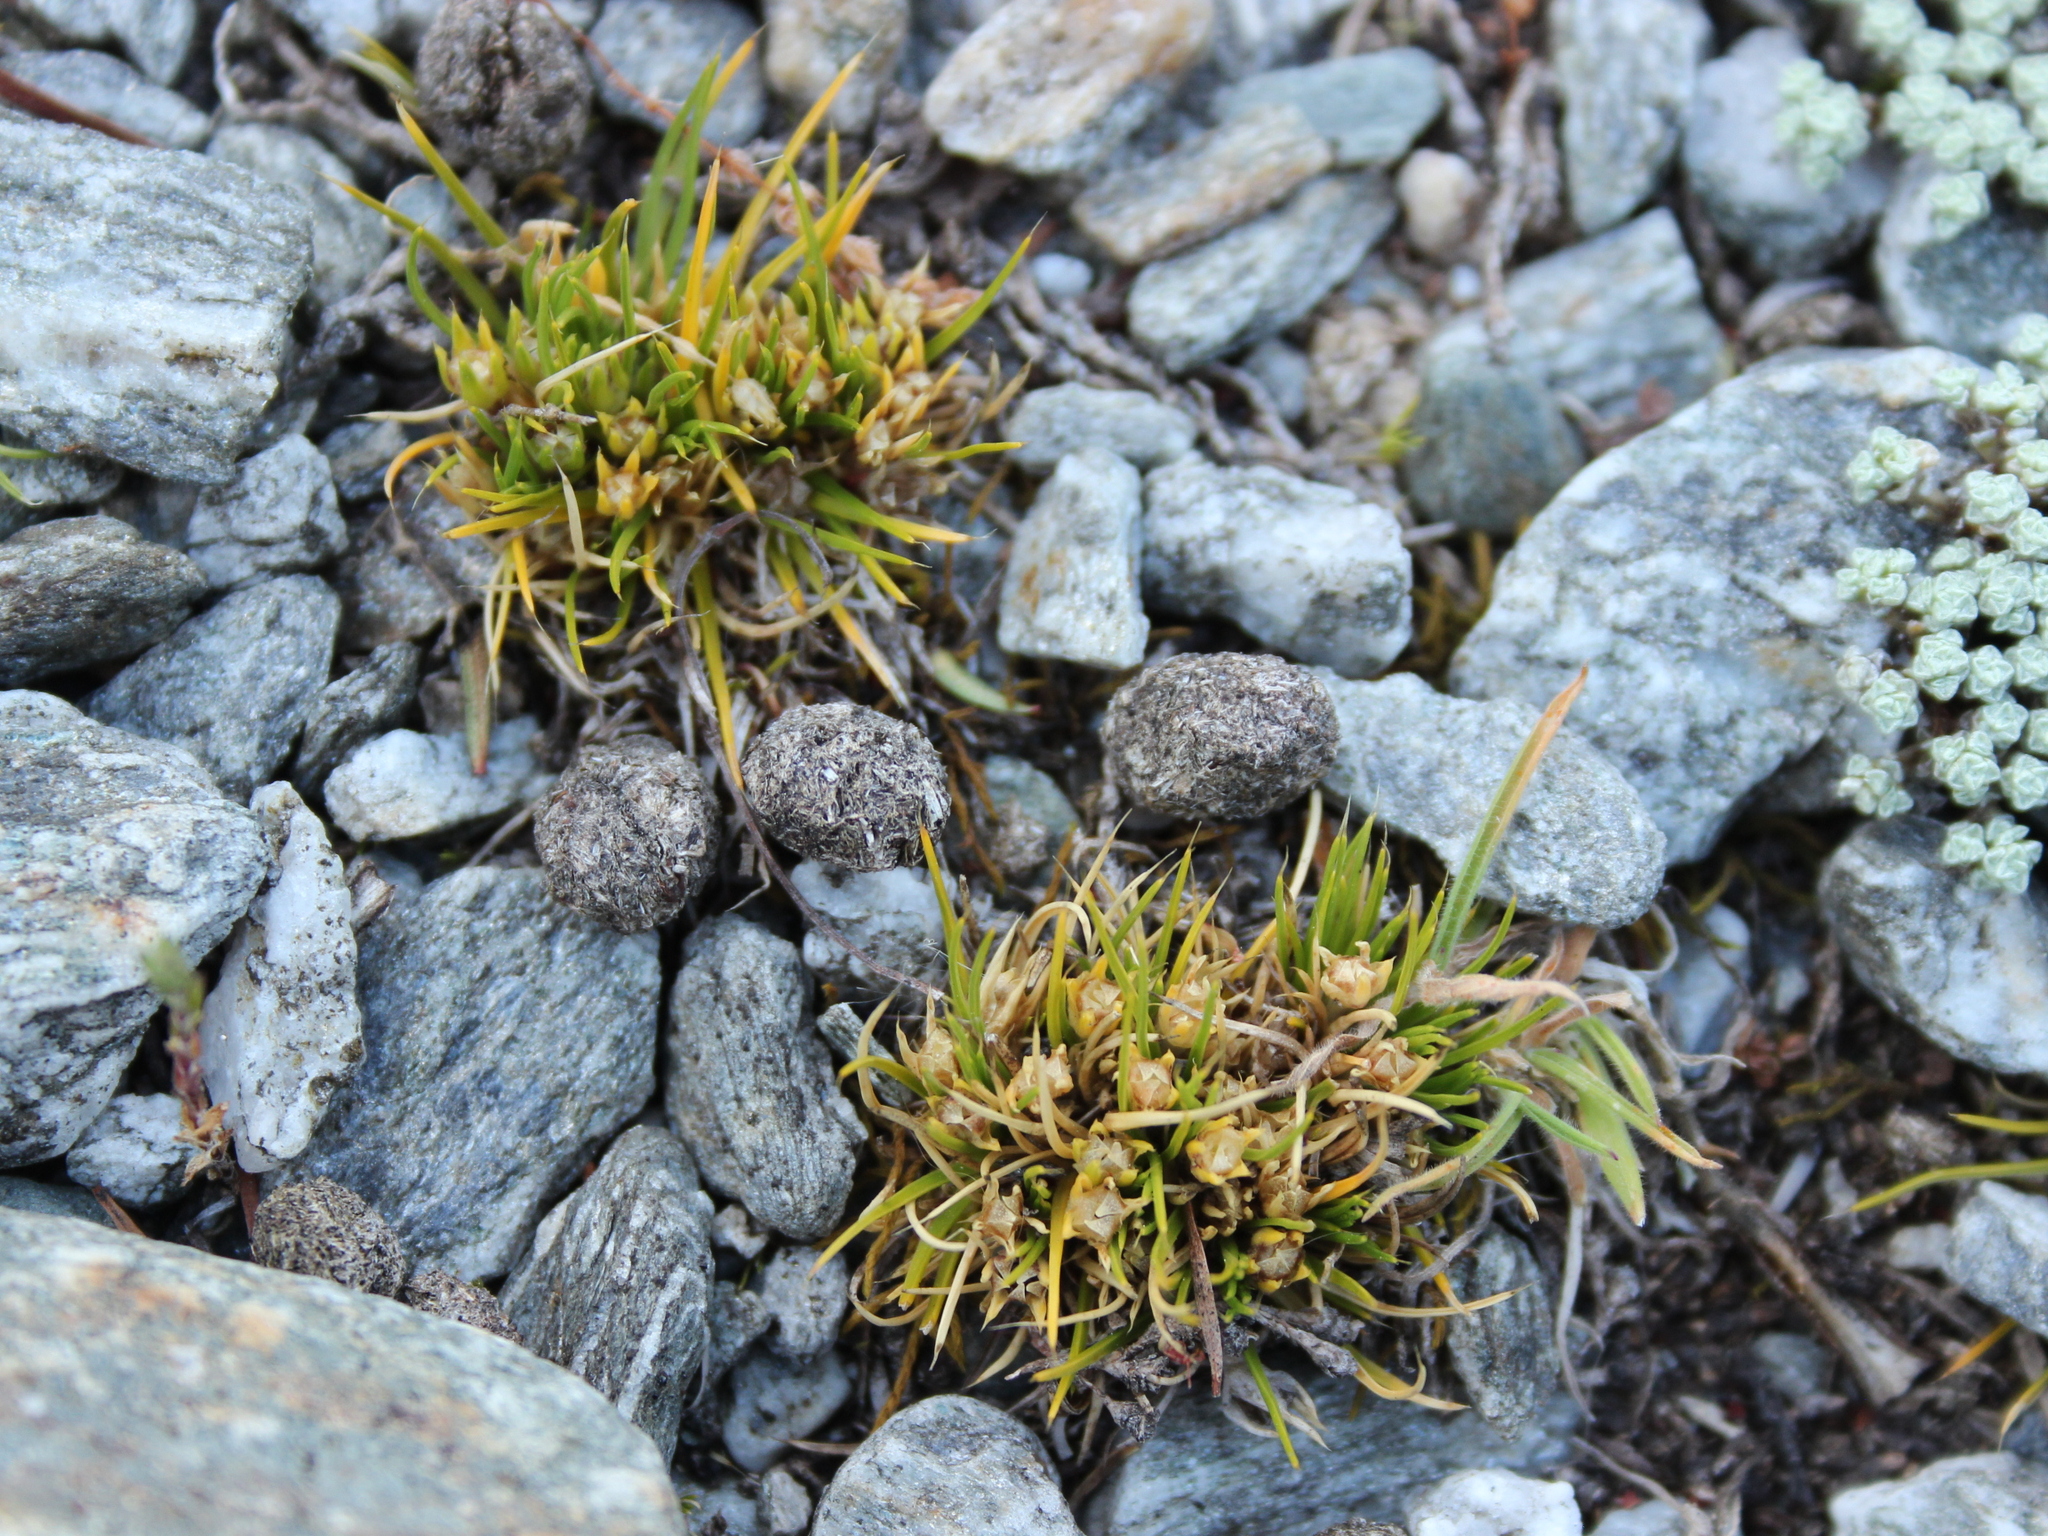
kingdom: Plantae
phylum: Tracheophyta
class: Magnoliopsida
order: Caryophyllales
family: Caryophyllaceae
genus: Colobanthus
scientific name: Colobanthus strictus
